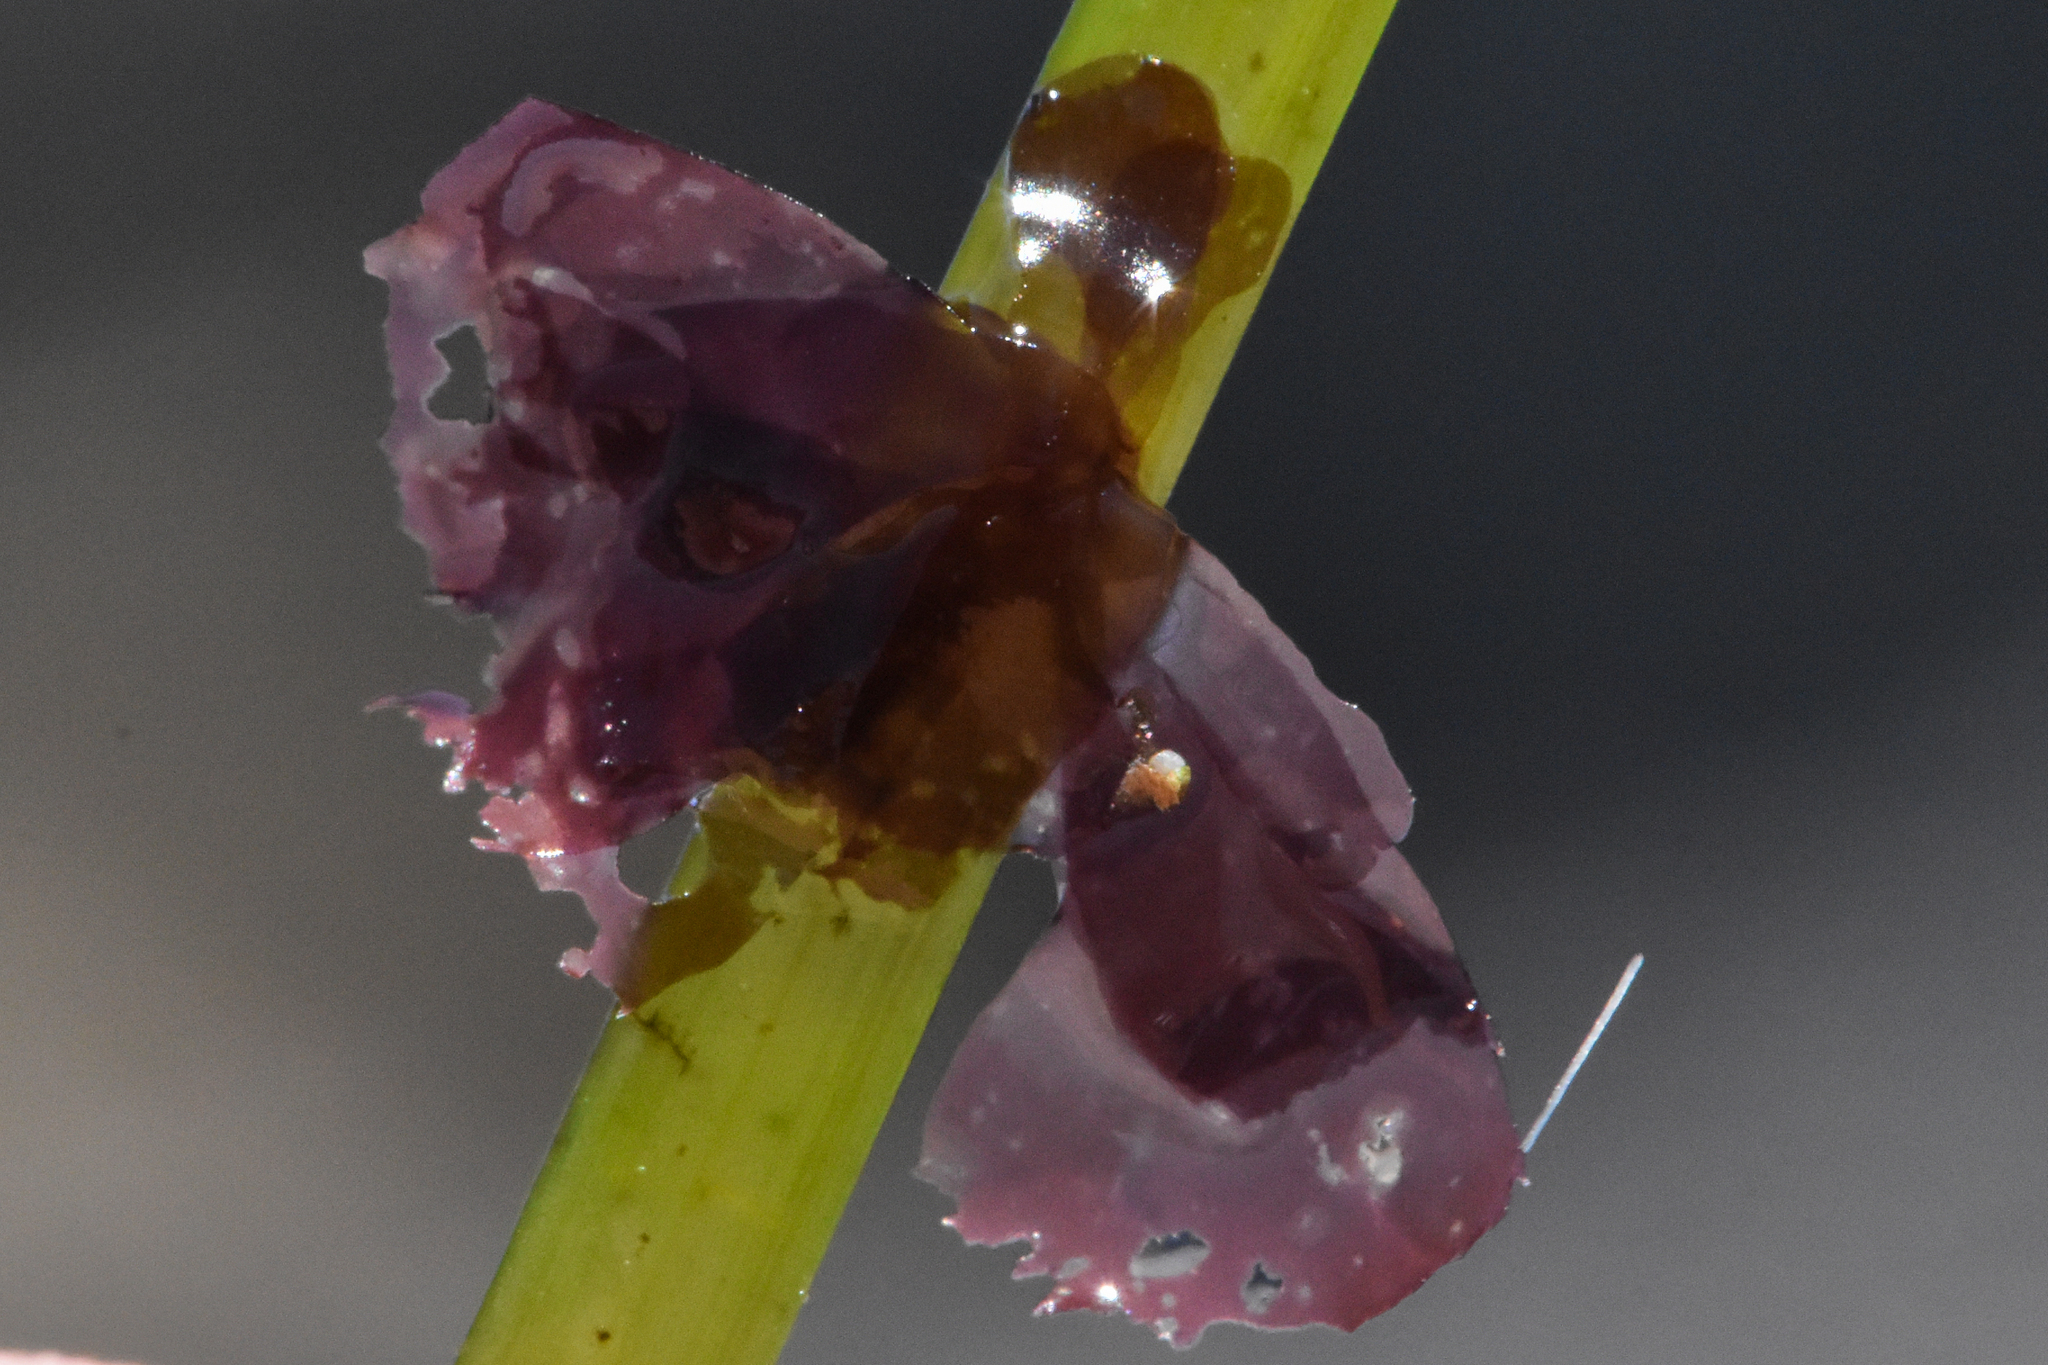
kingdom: Plantae
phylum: Rhodophyta
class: Compsopogonophyceae
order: Erythropeltidales
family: Erythrotrichiaceae
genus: Smithora
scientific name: Smithora naiadum
